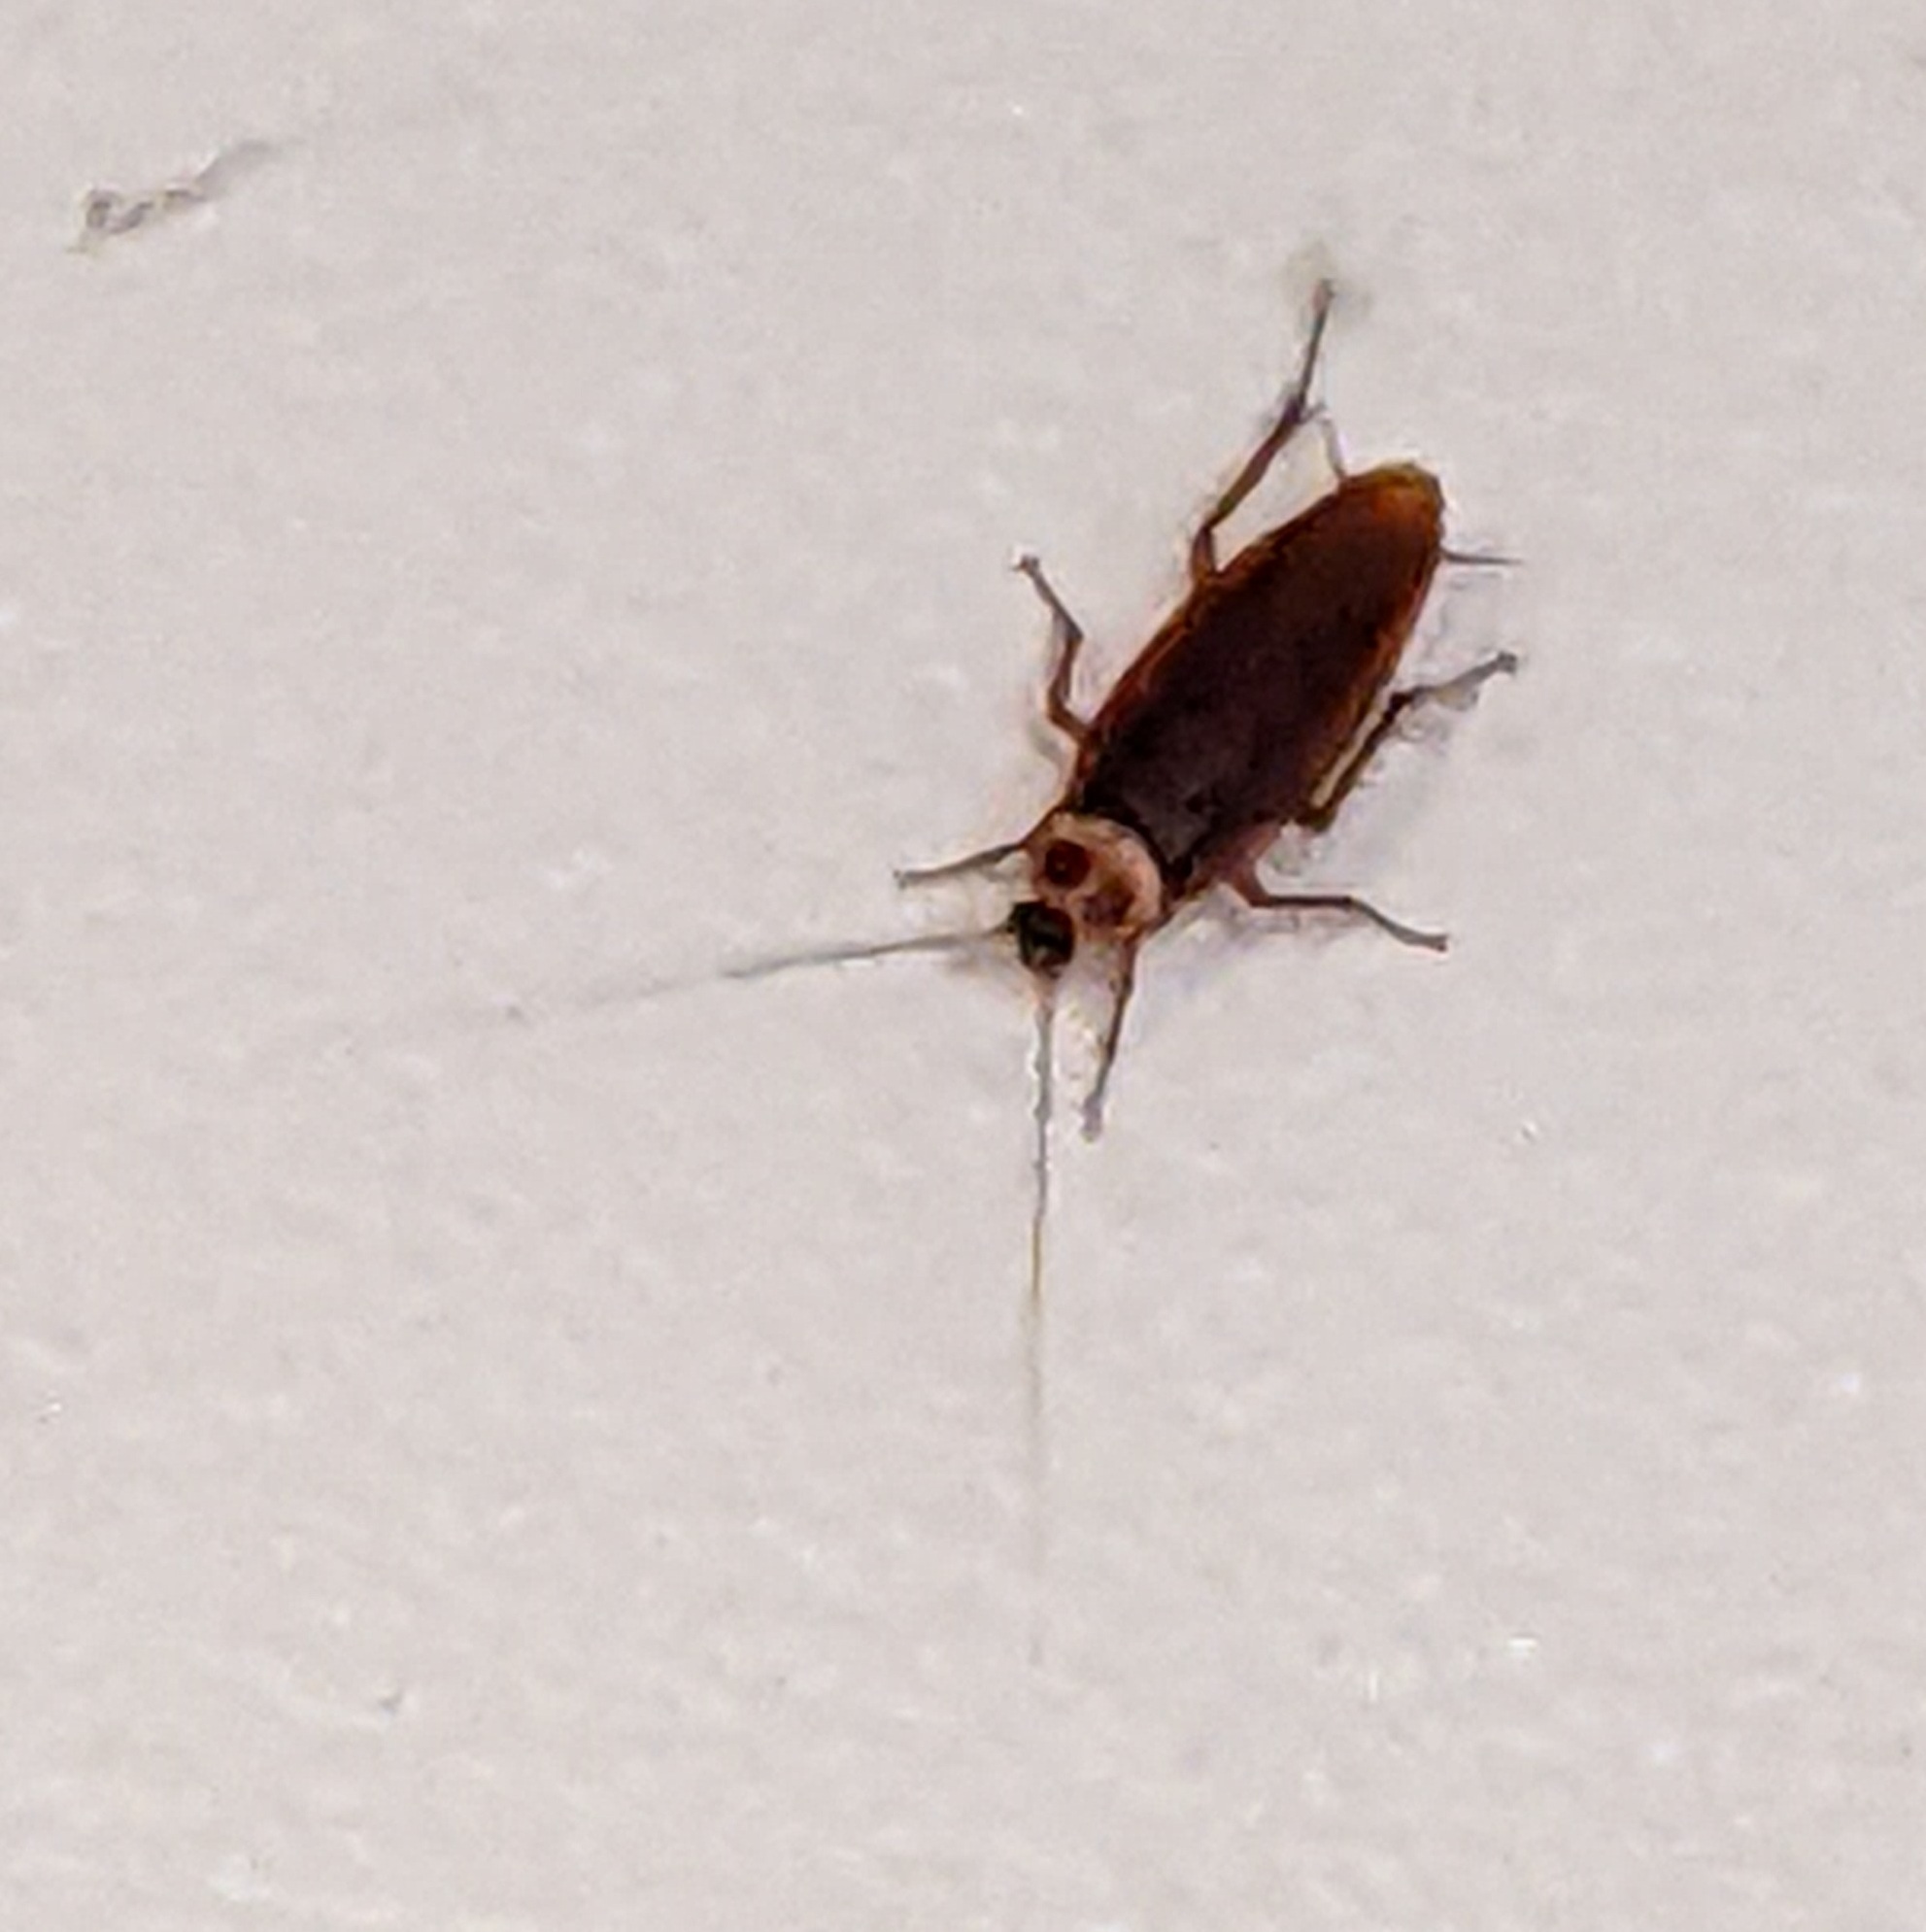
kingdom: Animalia
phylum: Arthropoda
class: Insecta
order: Blattodea
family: Blattidae
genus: Periplaneta
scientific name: Periplaneta americana
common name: American cockroach
